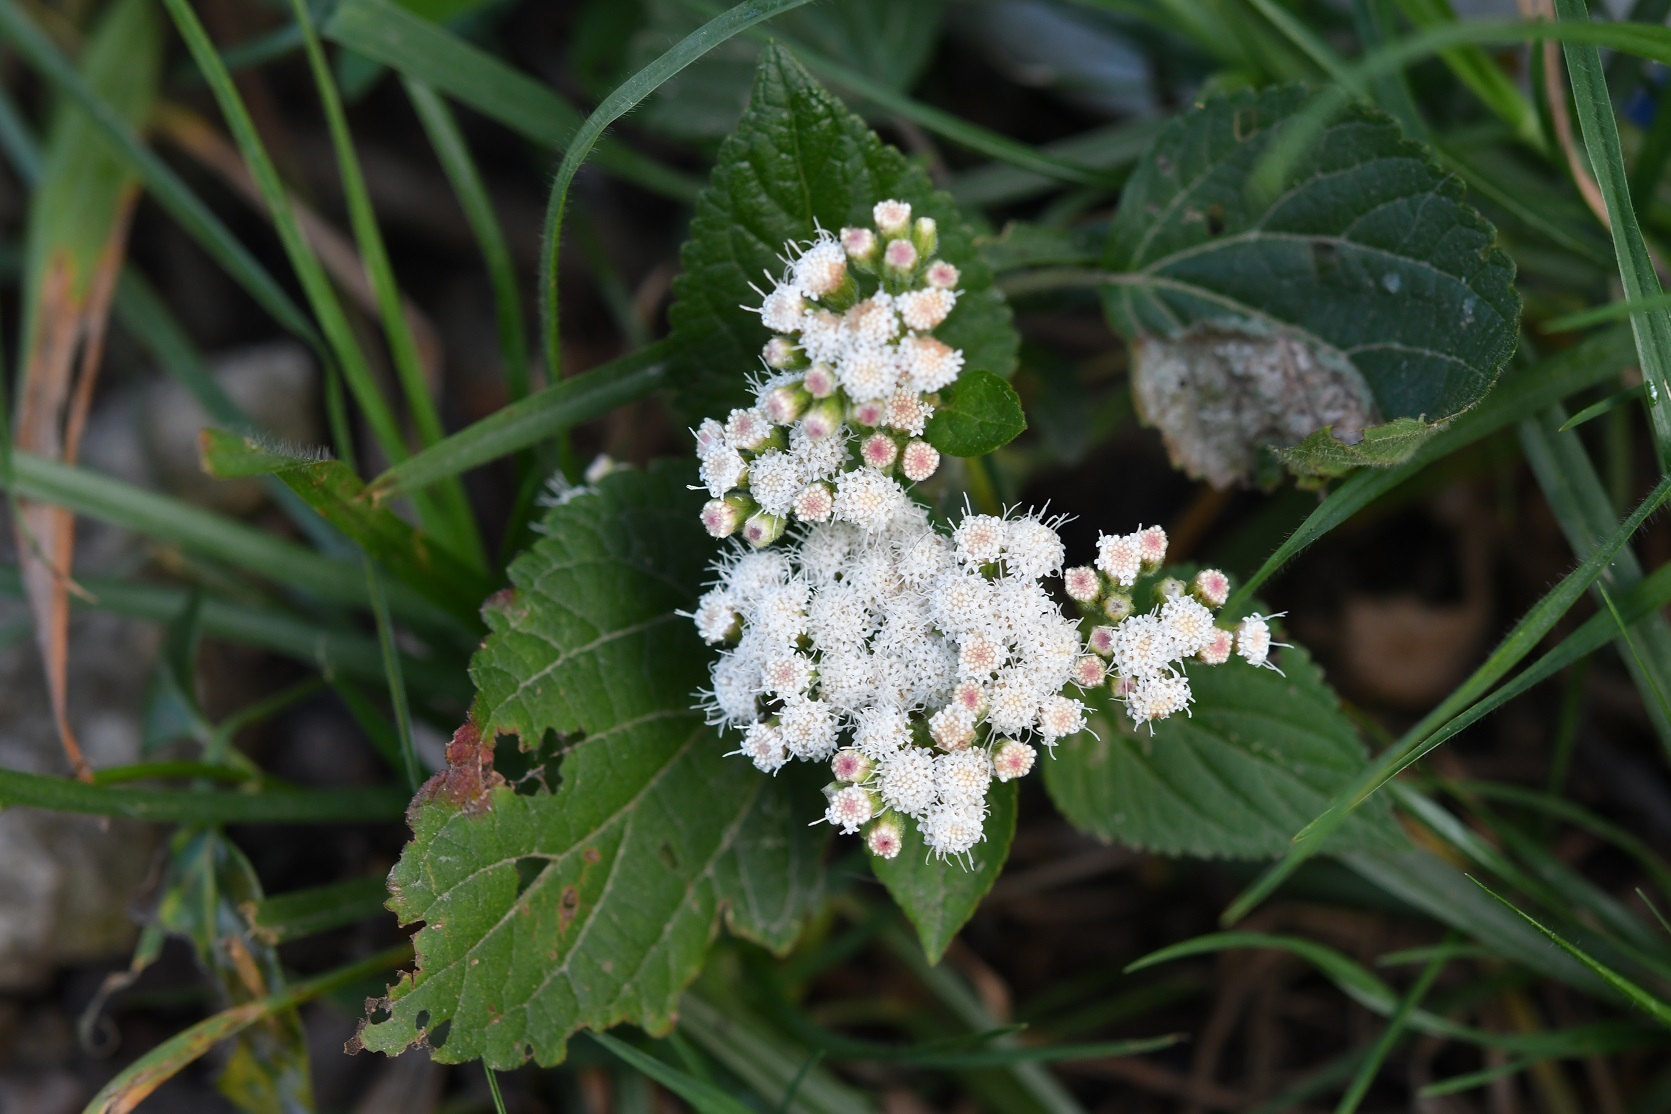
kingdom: Plantae
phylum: Tracheophyta
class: Magnoliopsida
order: Asterales
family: Asteraceae
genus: Ageratina
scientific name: Ageratina vernalis
